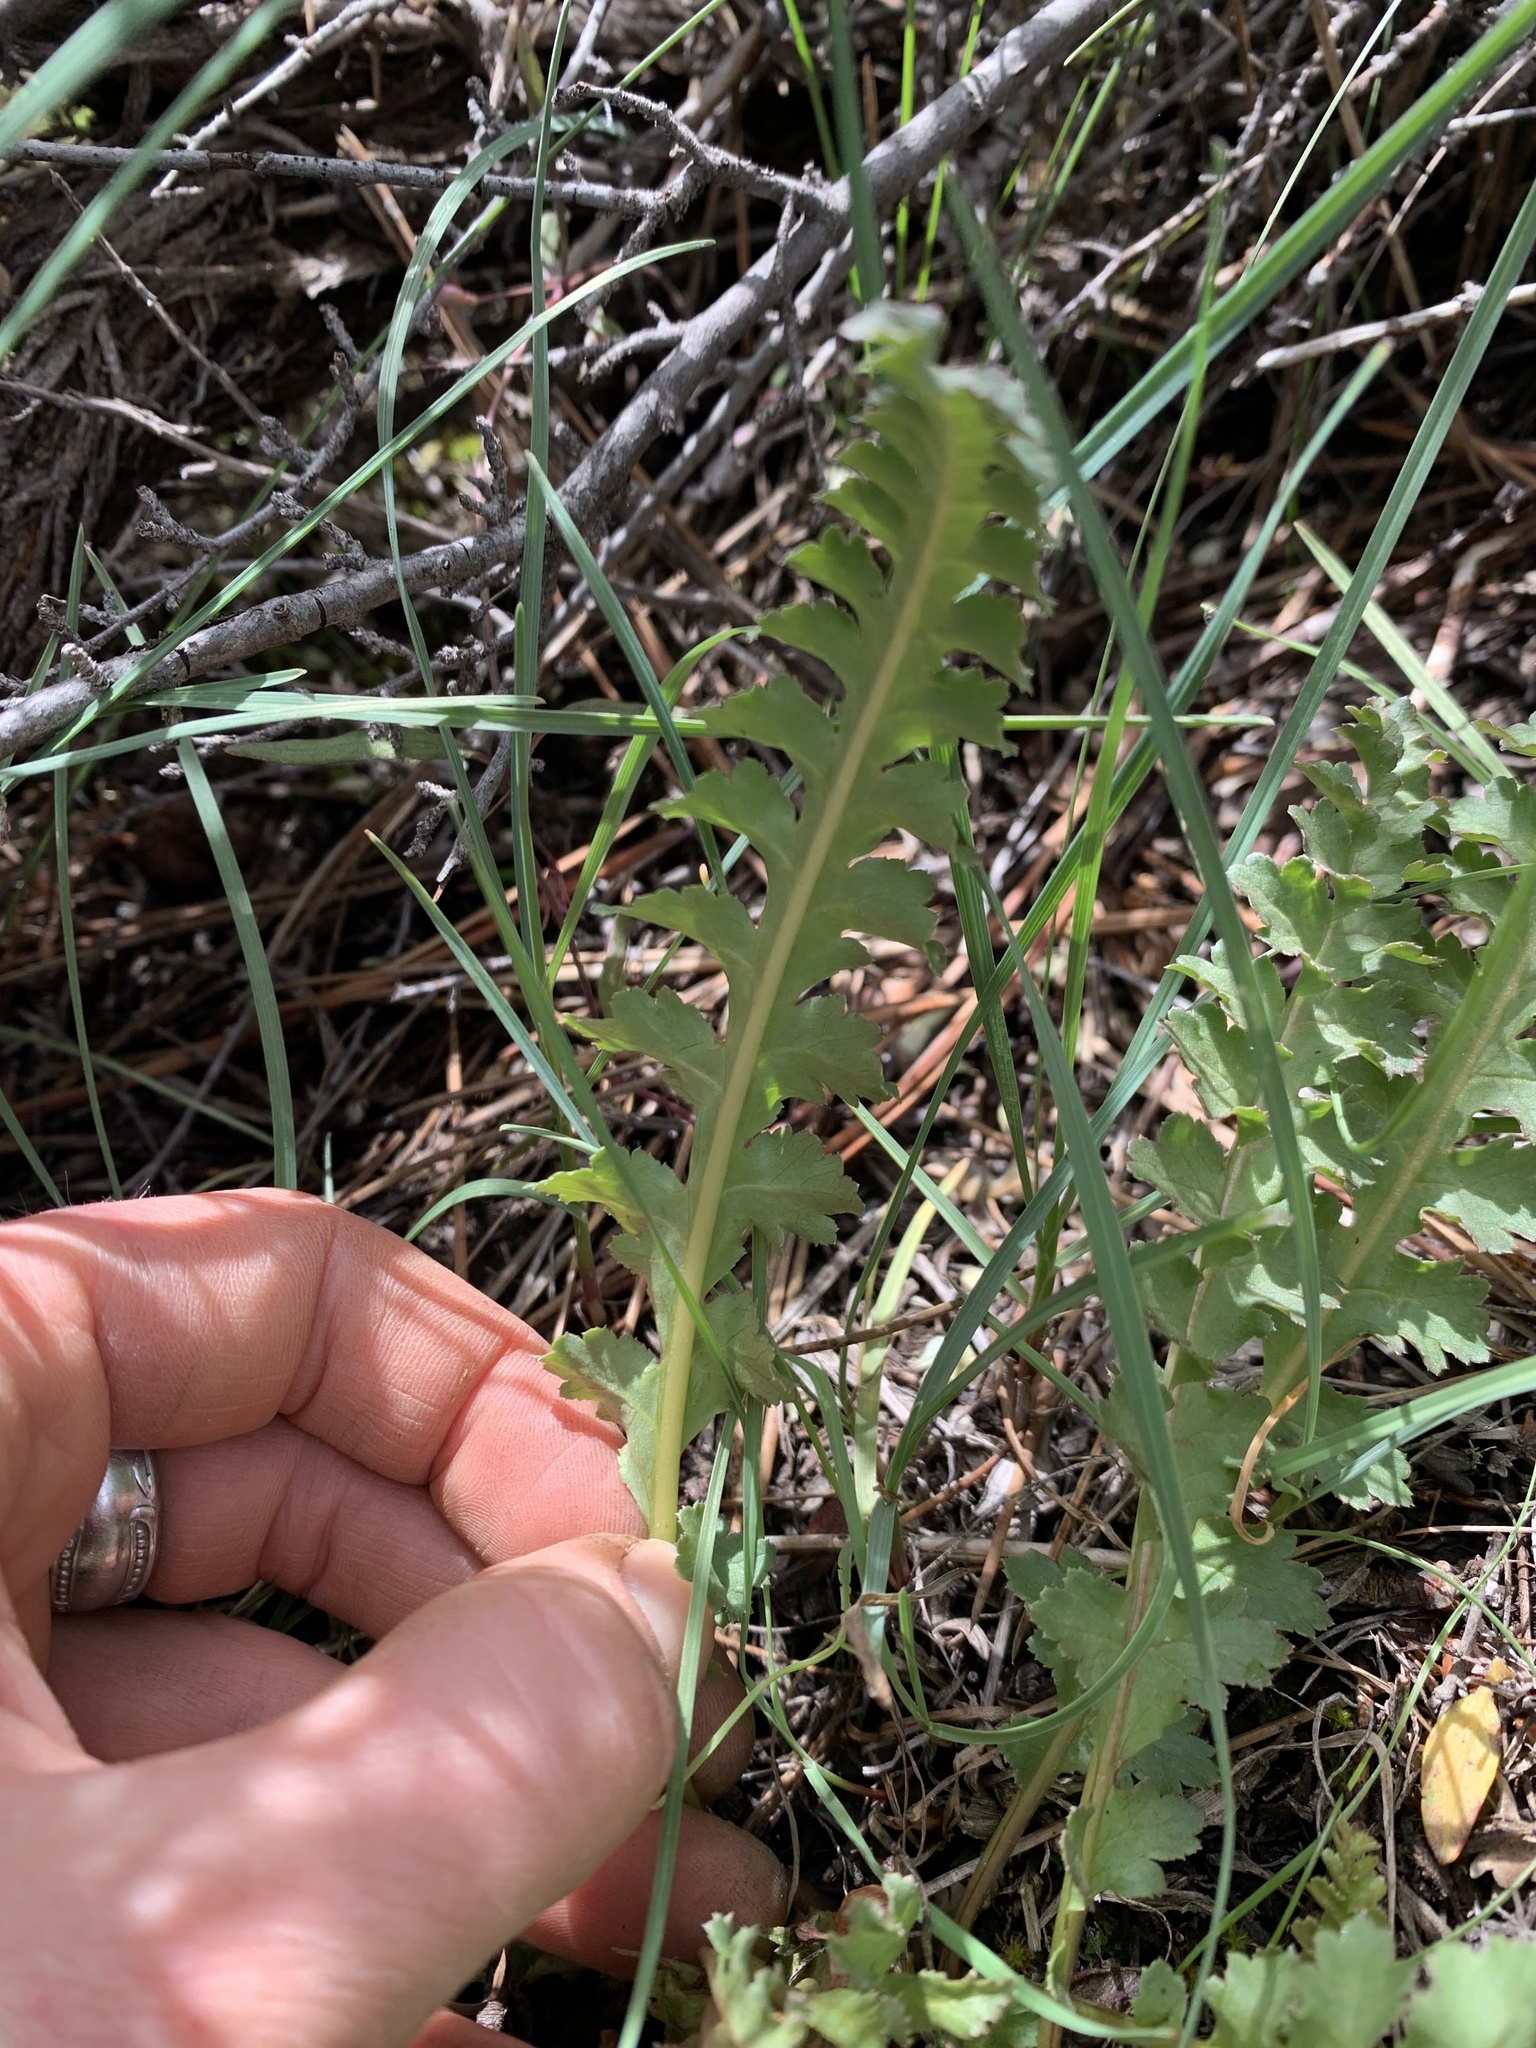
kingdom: Plantae
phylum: Tracheophyta
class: Magnoliopsida
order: Lamiales
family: Orobanchaceae
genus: Pedicularis
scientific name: Pedicularis centranthera
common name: Dwarf lousewort
